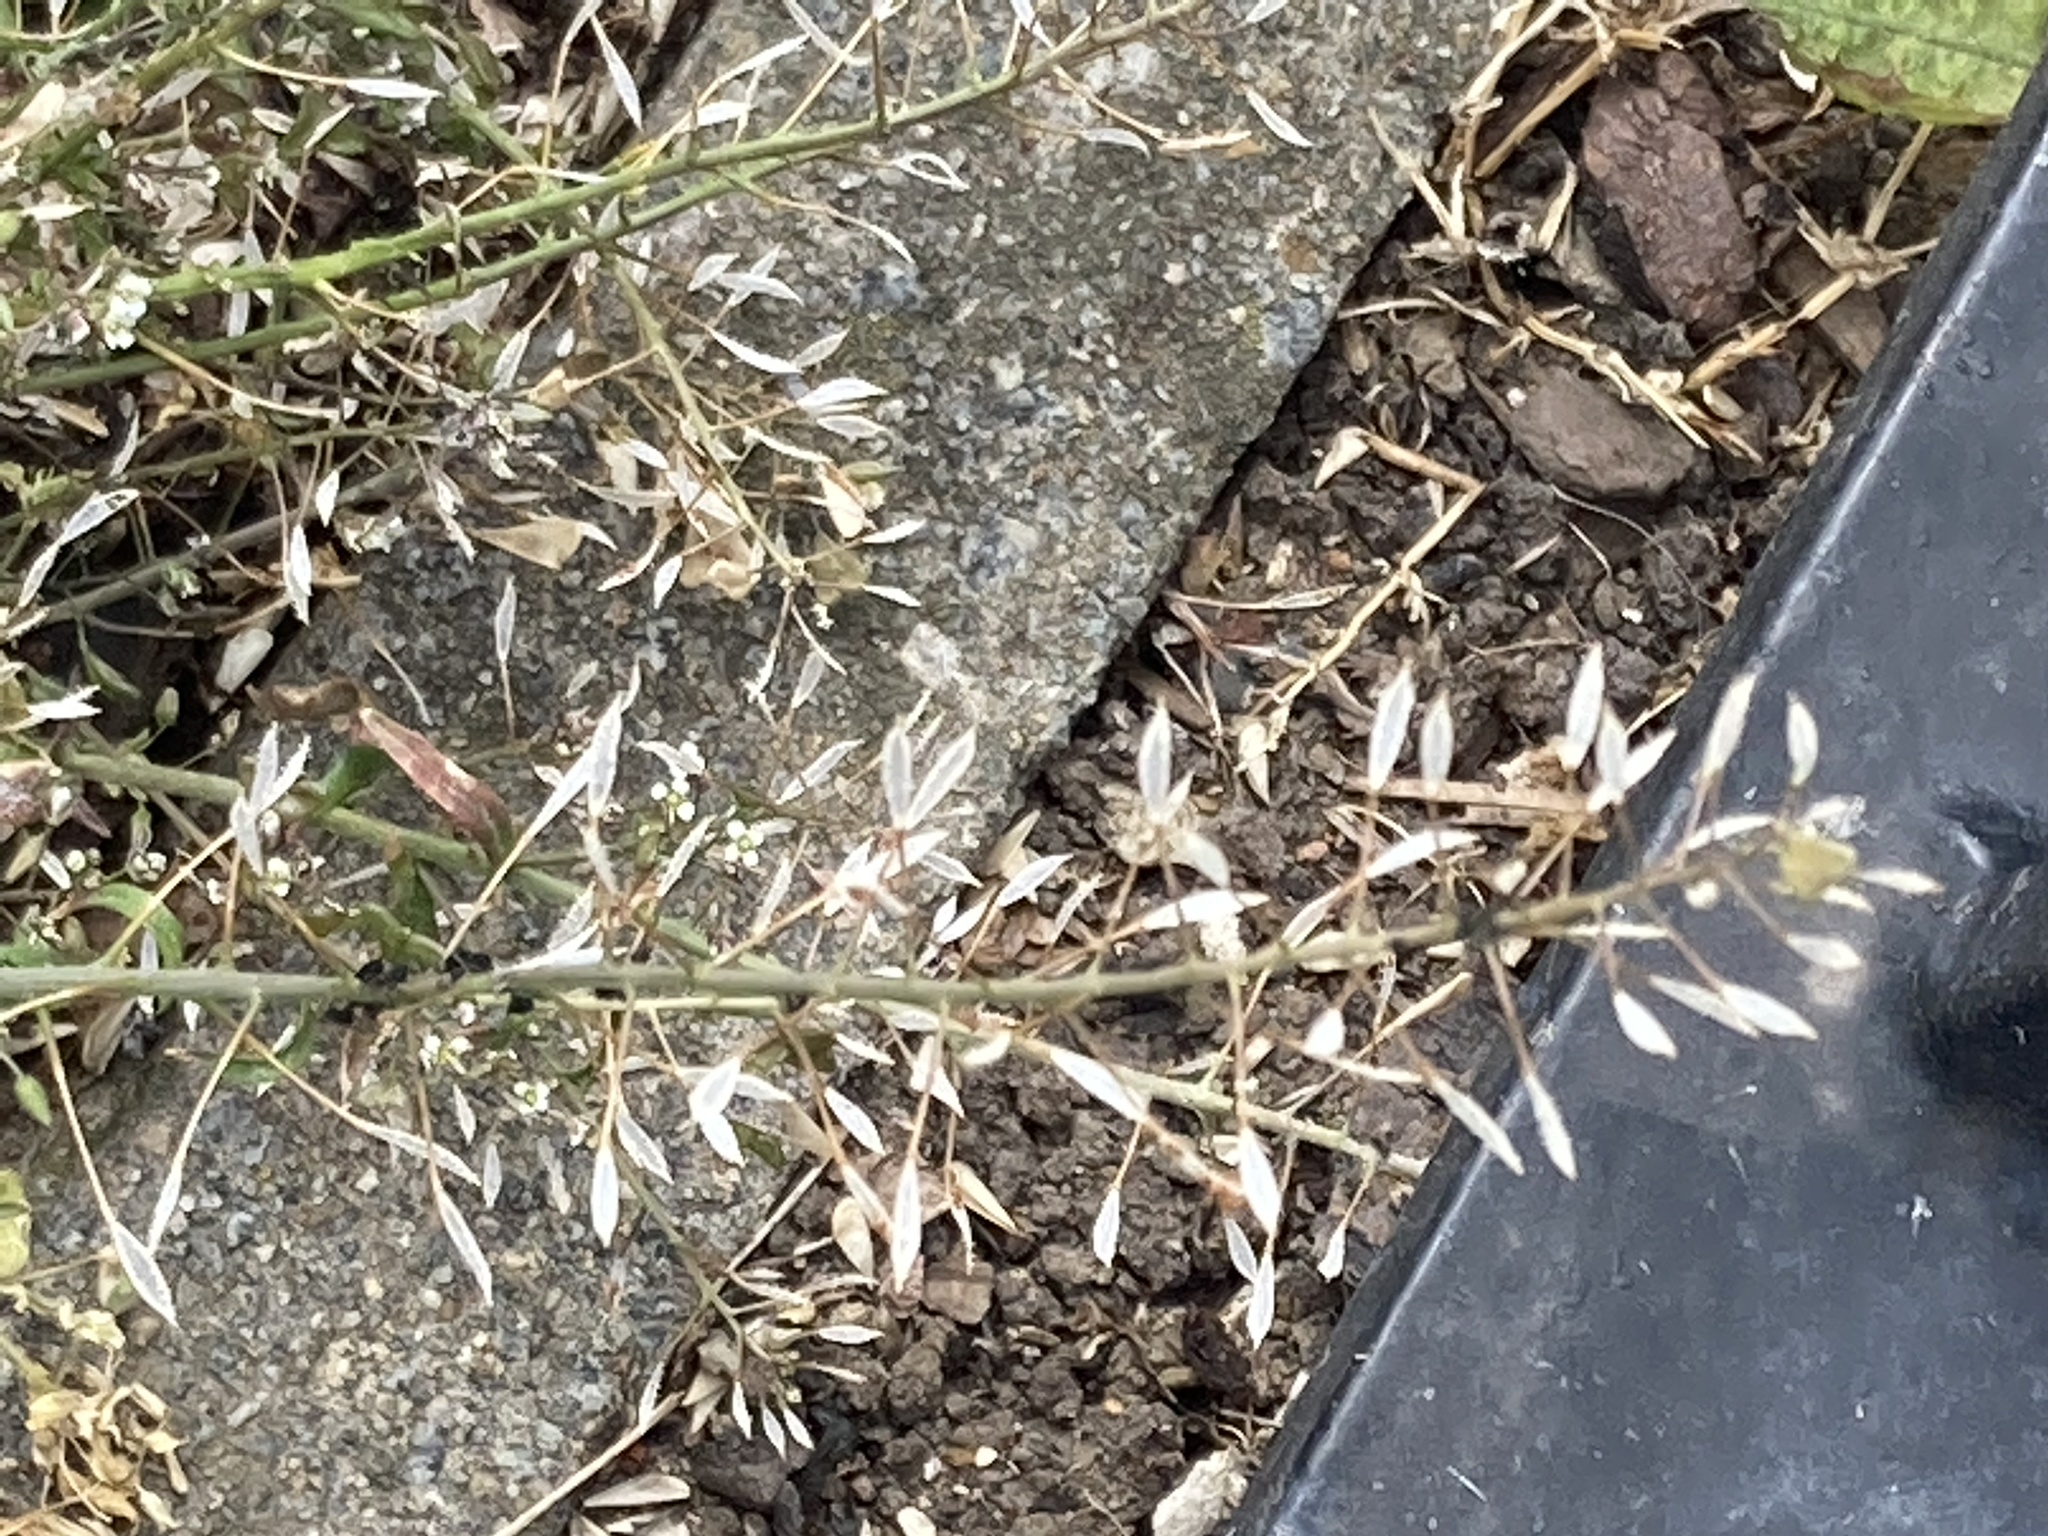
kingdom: Plantae
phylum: Tracheophyta
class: Magnoliopsida
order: Brassicales
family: Brassicaceae
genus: Capsella
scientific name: Capsella bursa-pastoris
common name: Shepherd's purse
